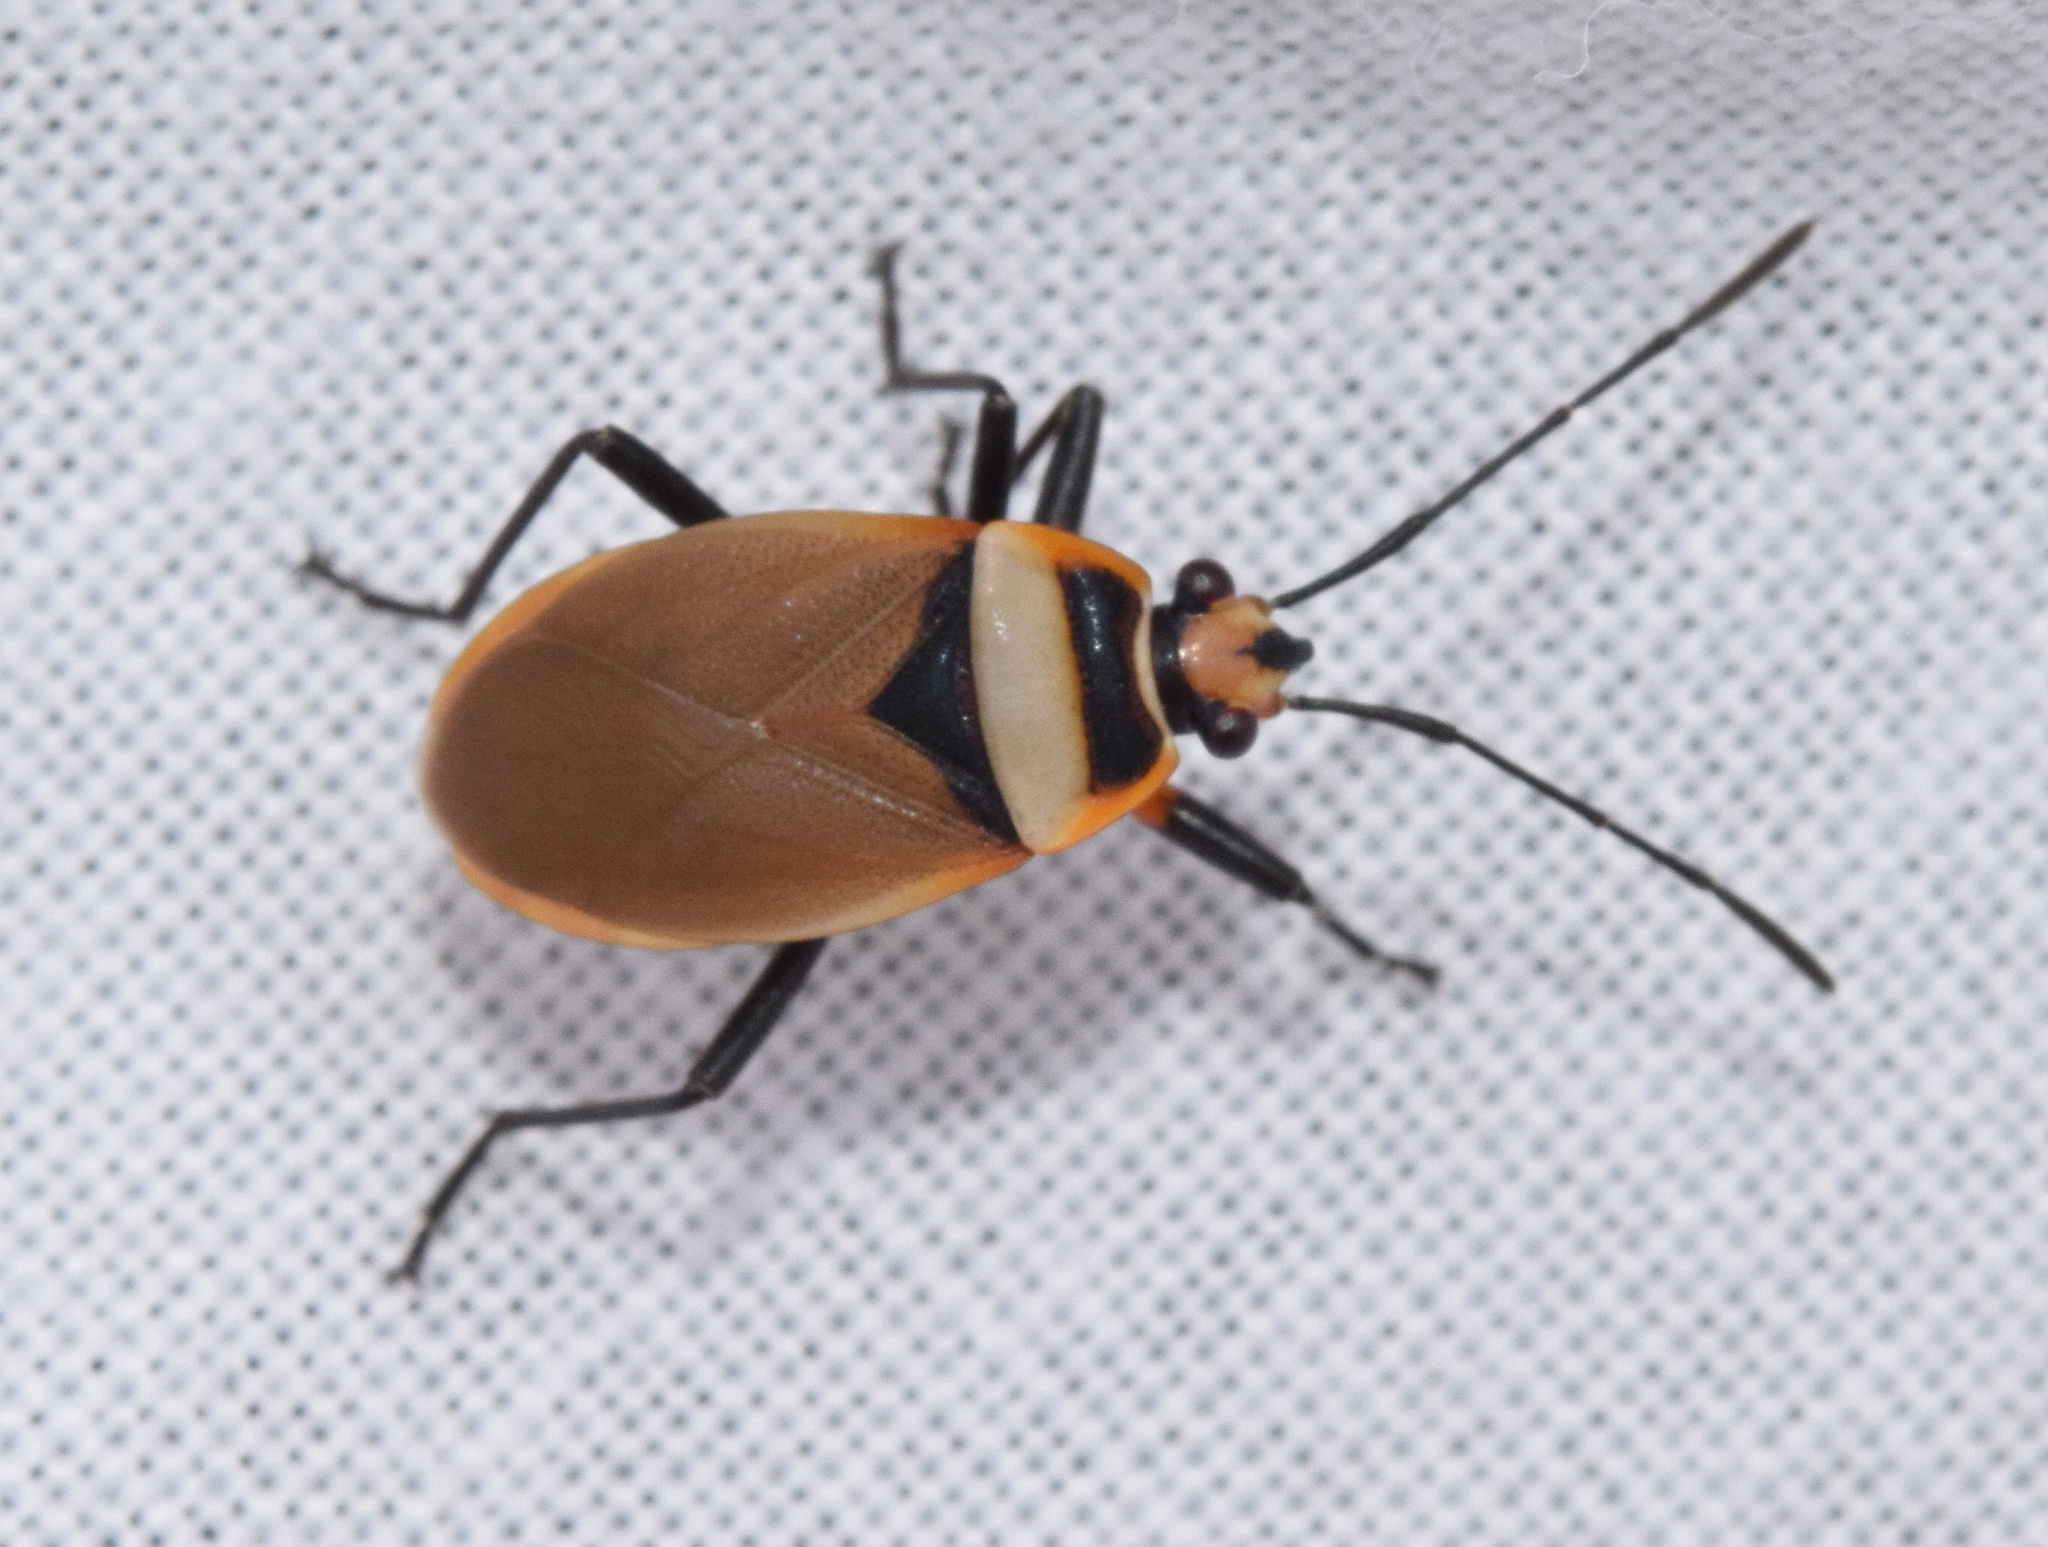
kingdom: Animalia
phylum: Arthropoda
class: Insecta
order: Hemiptera
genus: Cenaeus
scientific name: Cenaeus
